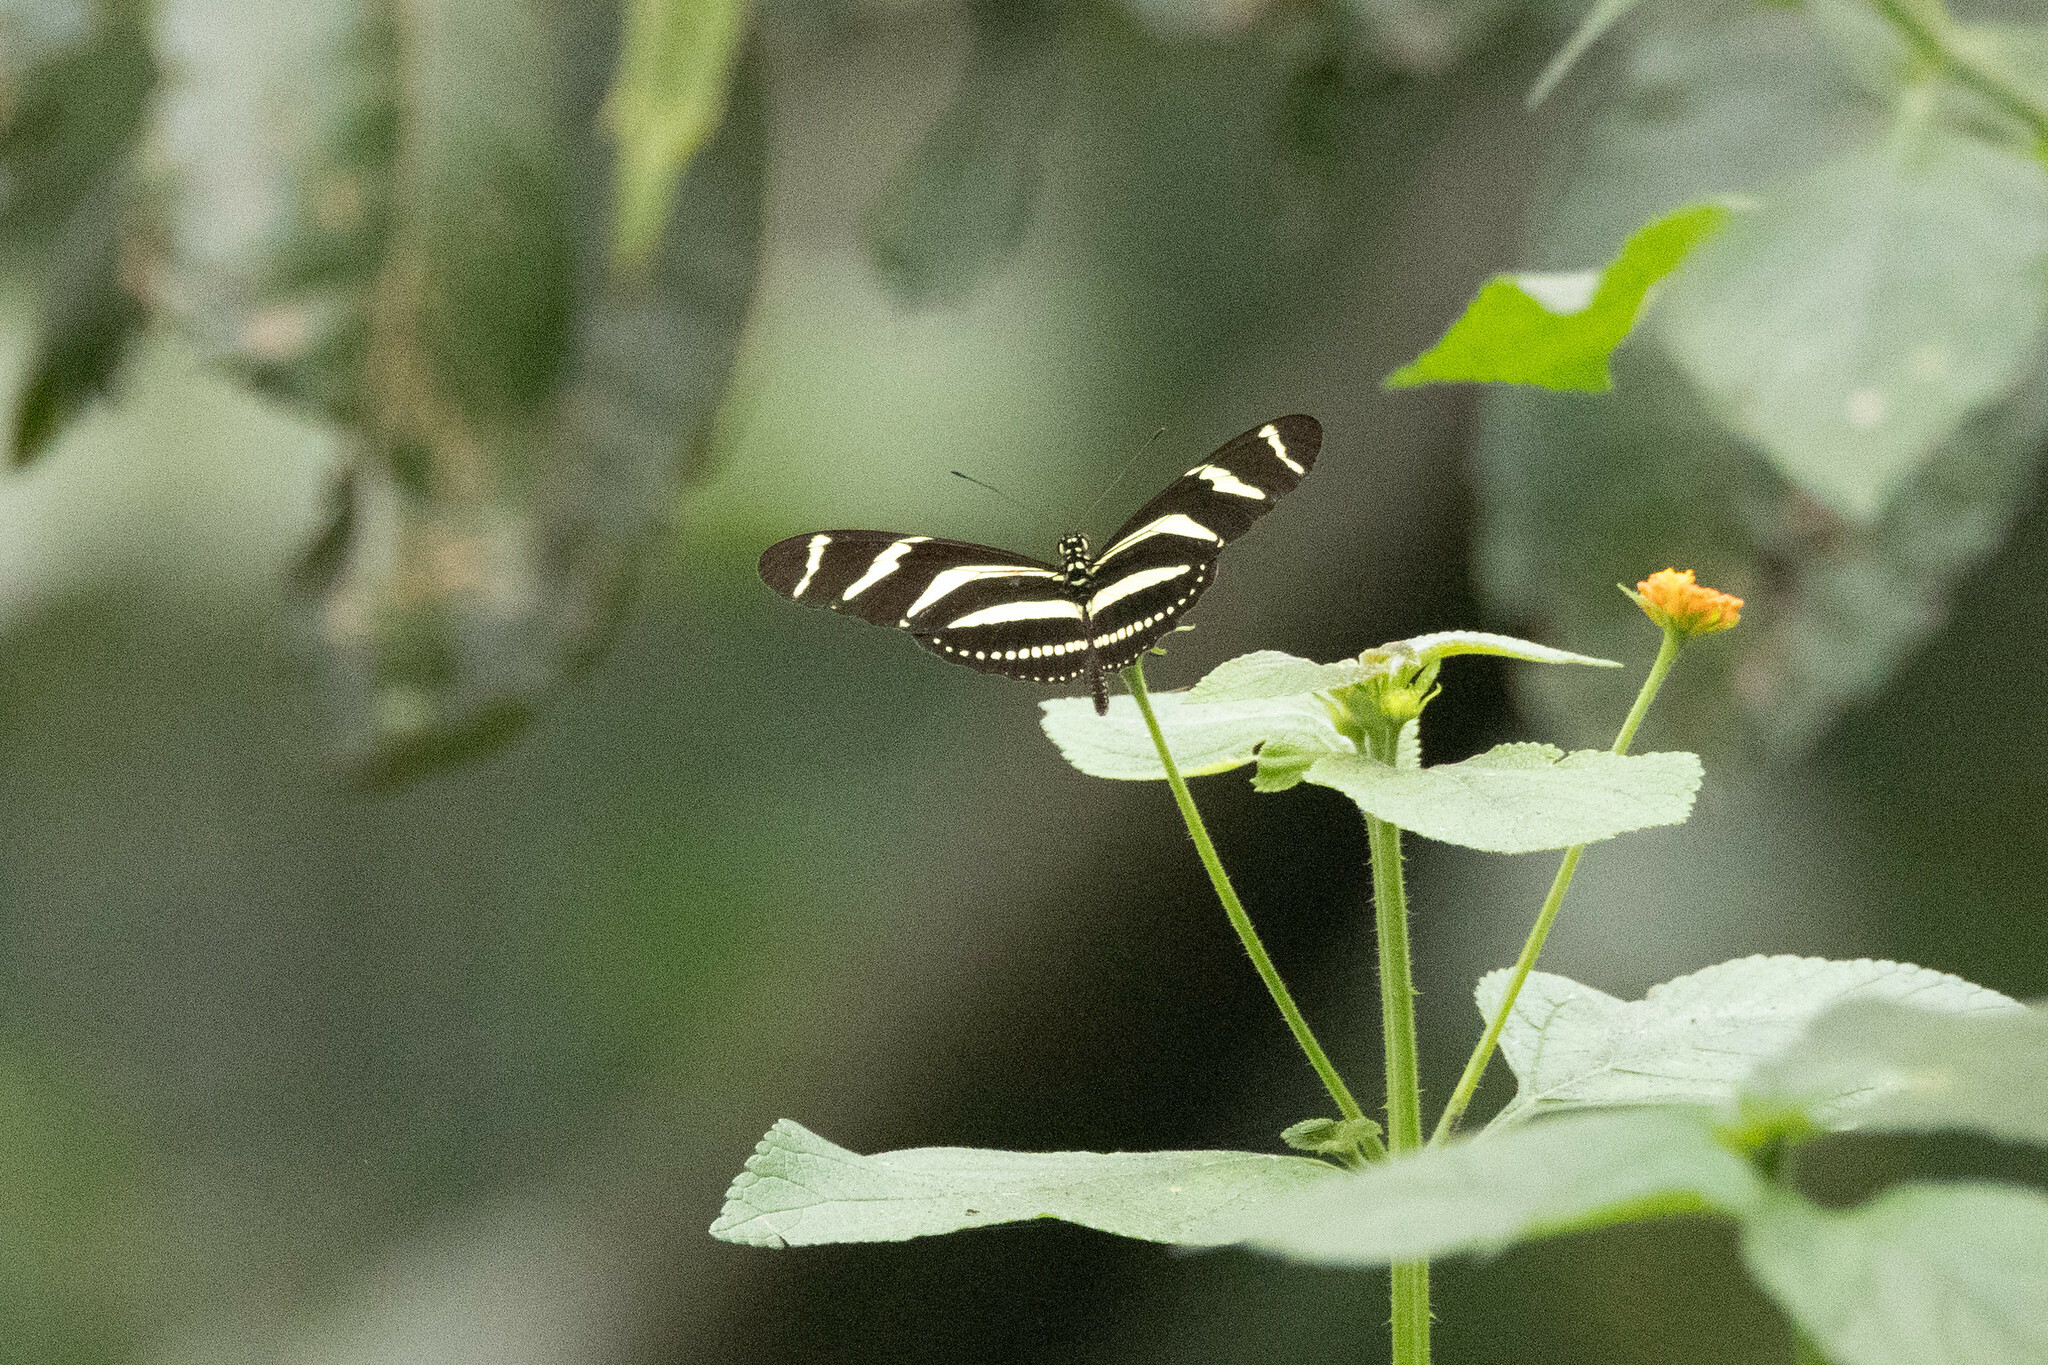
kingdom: Animalia
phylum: Arthropoda
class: Insecta
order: Lepidoptera
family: Nymphalidae
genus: Heliconius
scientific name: Heliconius charithonia
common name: Zebra long wing
